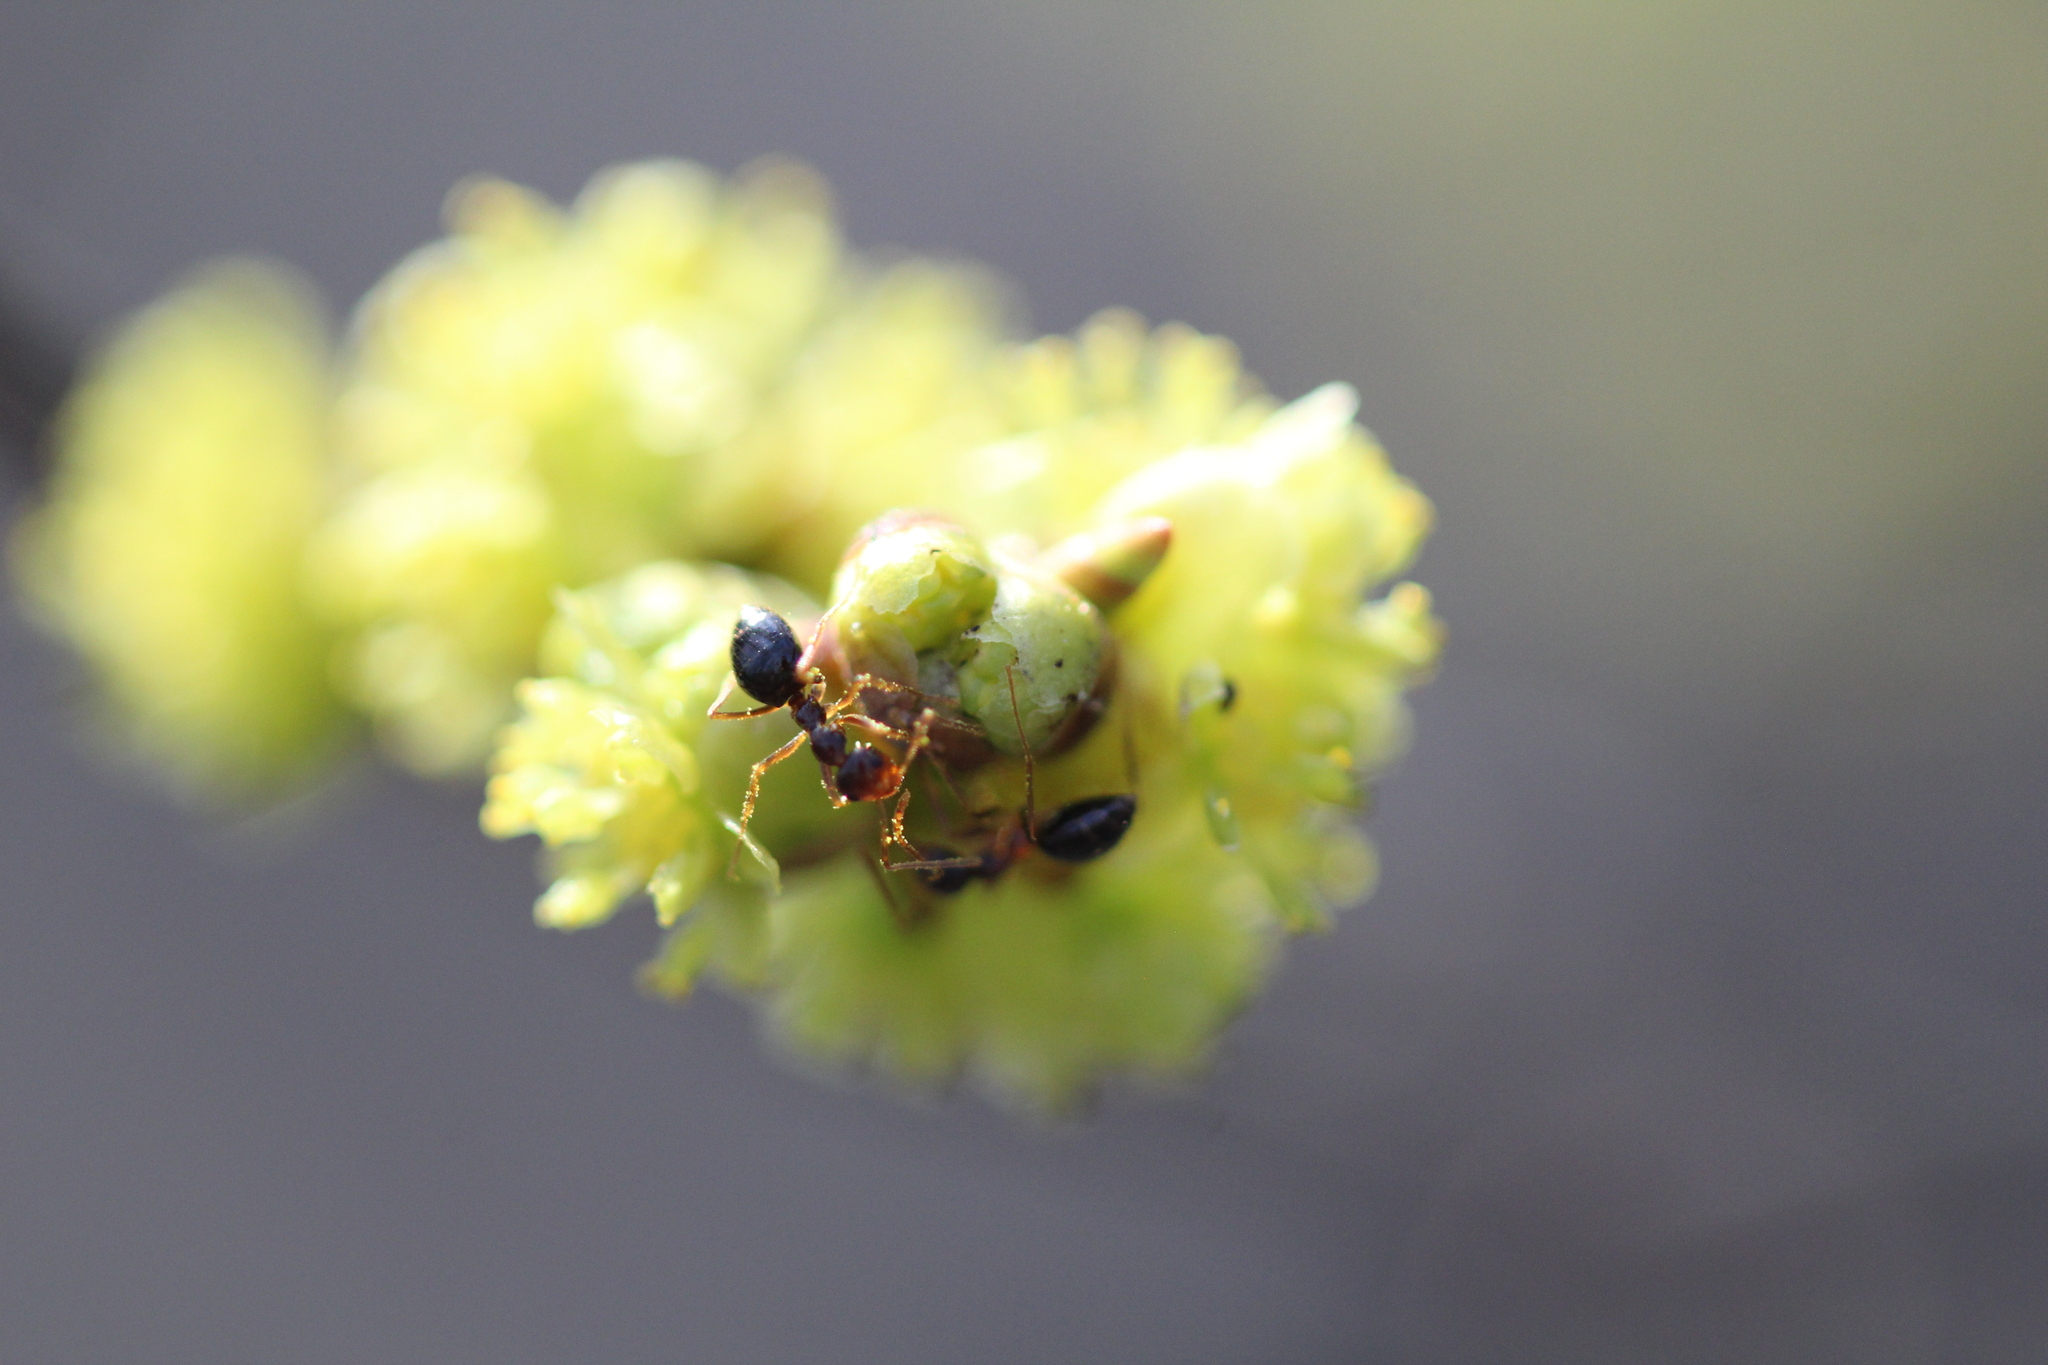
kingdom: Animalia
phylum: Arthropoda
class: Insecta
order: Hymenoptera
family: Formicidae
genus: Prenolepis
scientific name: Prenolepis imparis
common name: Small honey ant
